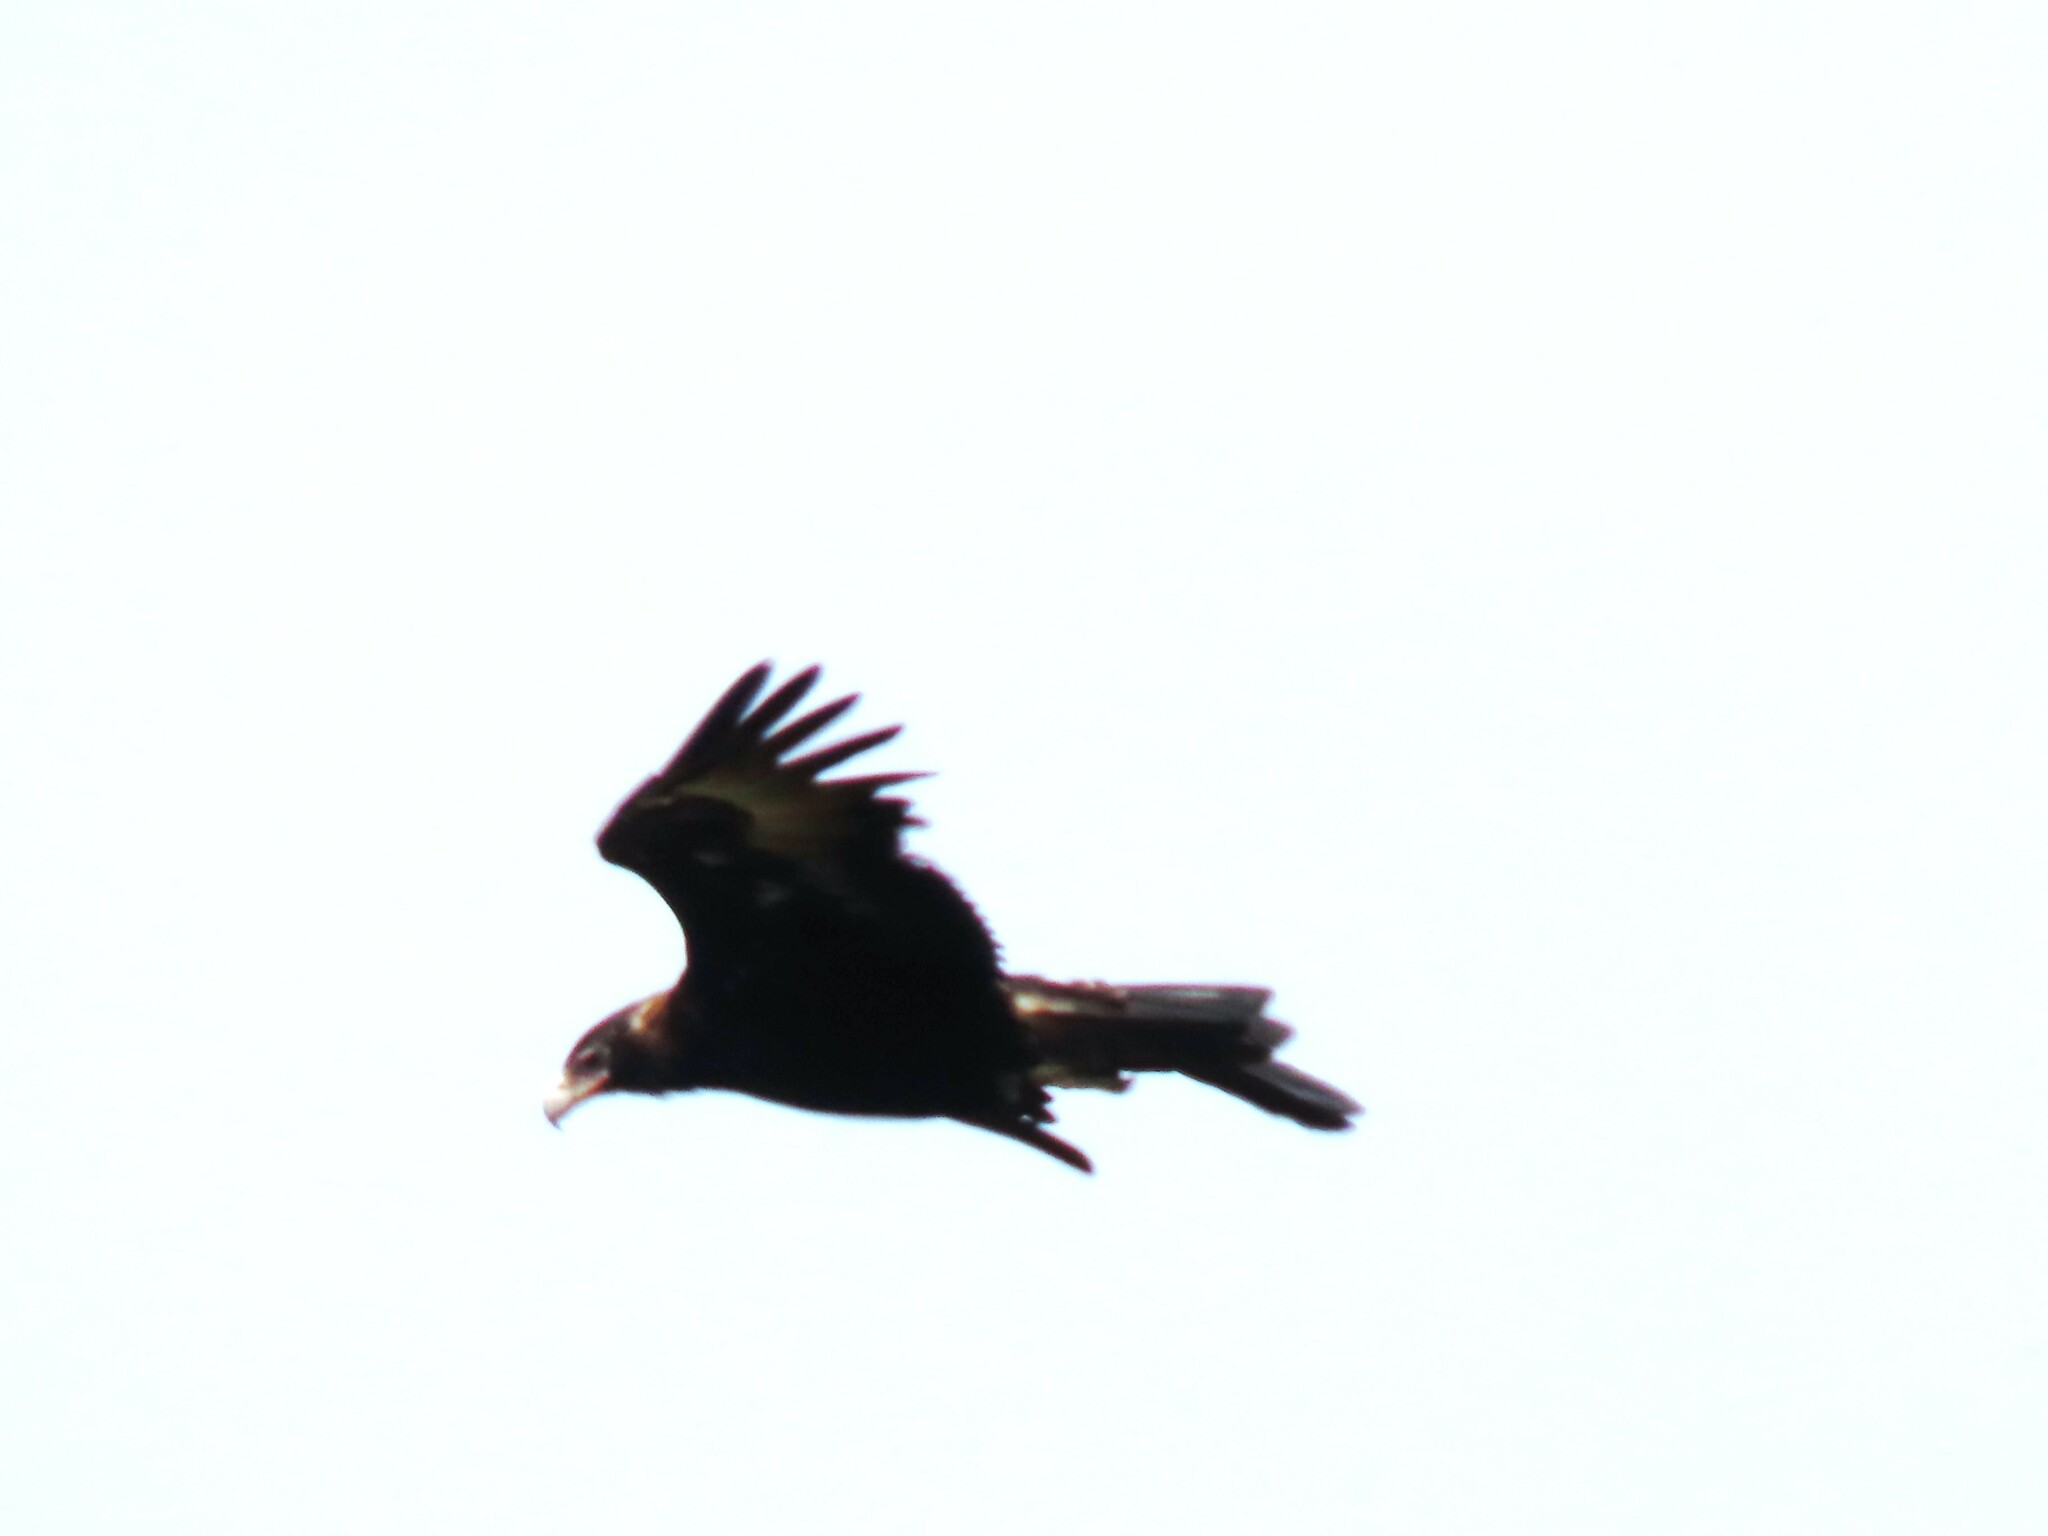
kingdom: Animalia
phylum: Chordata
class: Aves
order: Accipitriformes
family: Accipitridae
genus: Aquila
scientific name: Aquila audax
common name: Wedge-tailed eagle
